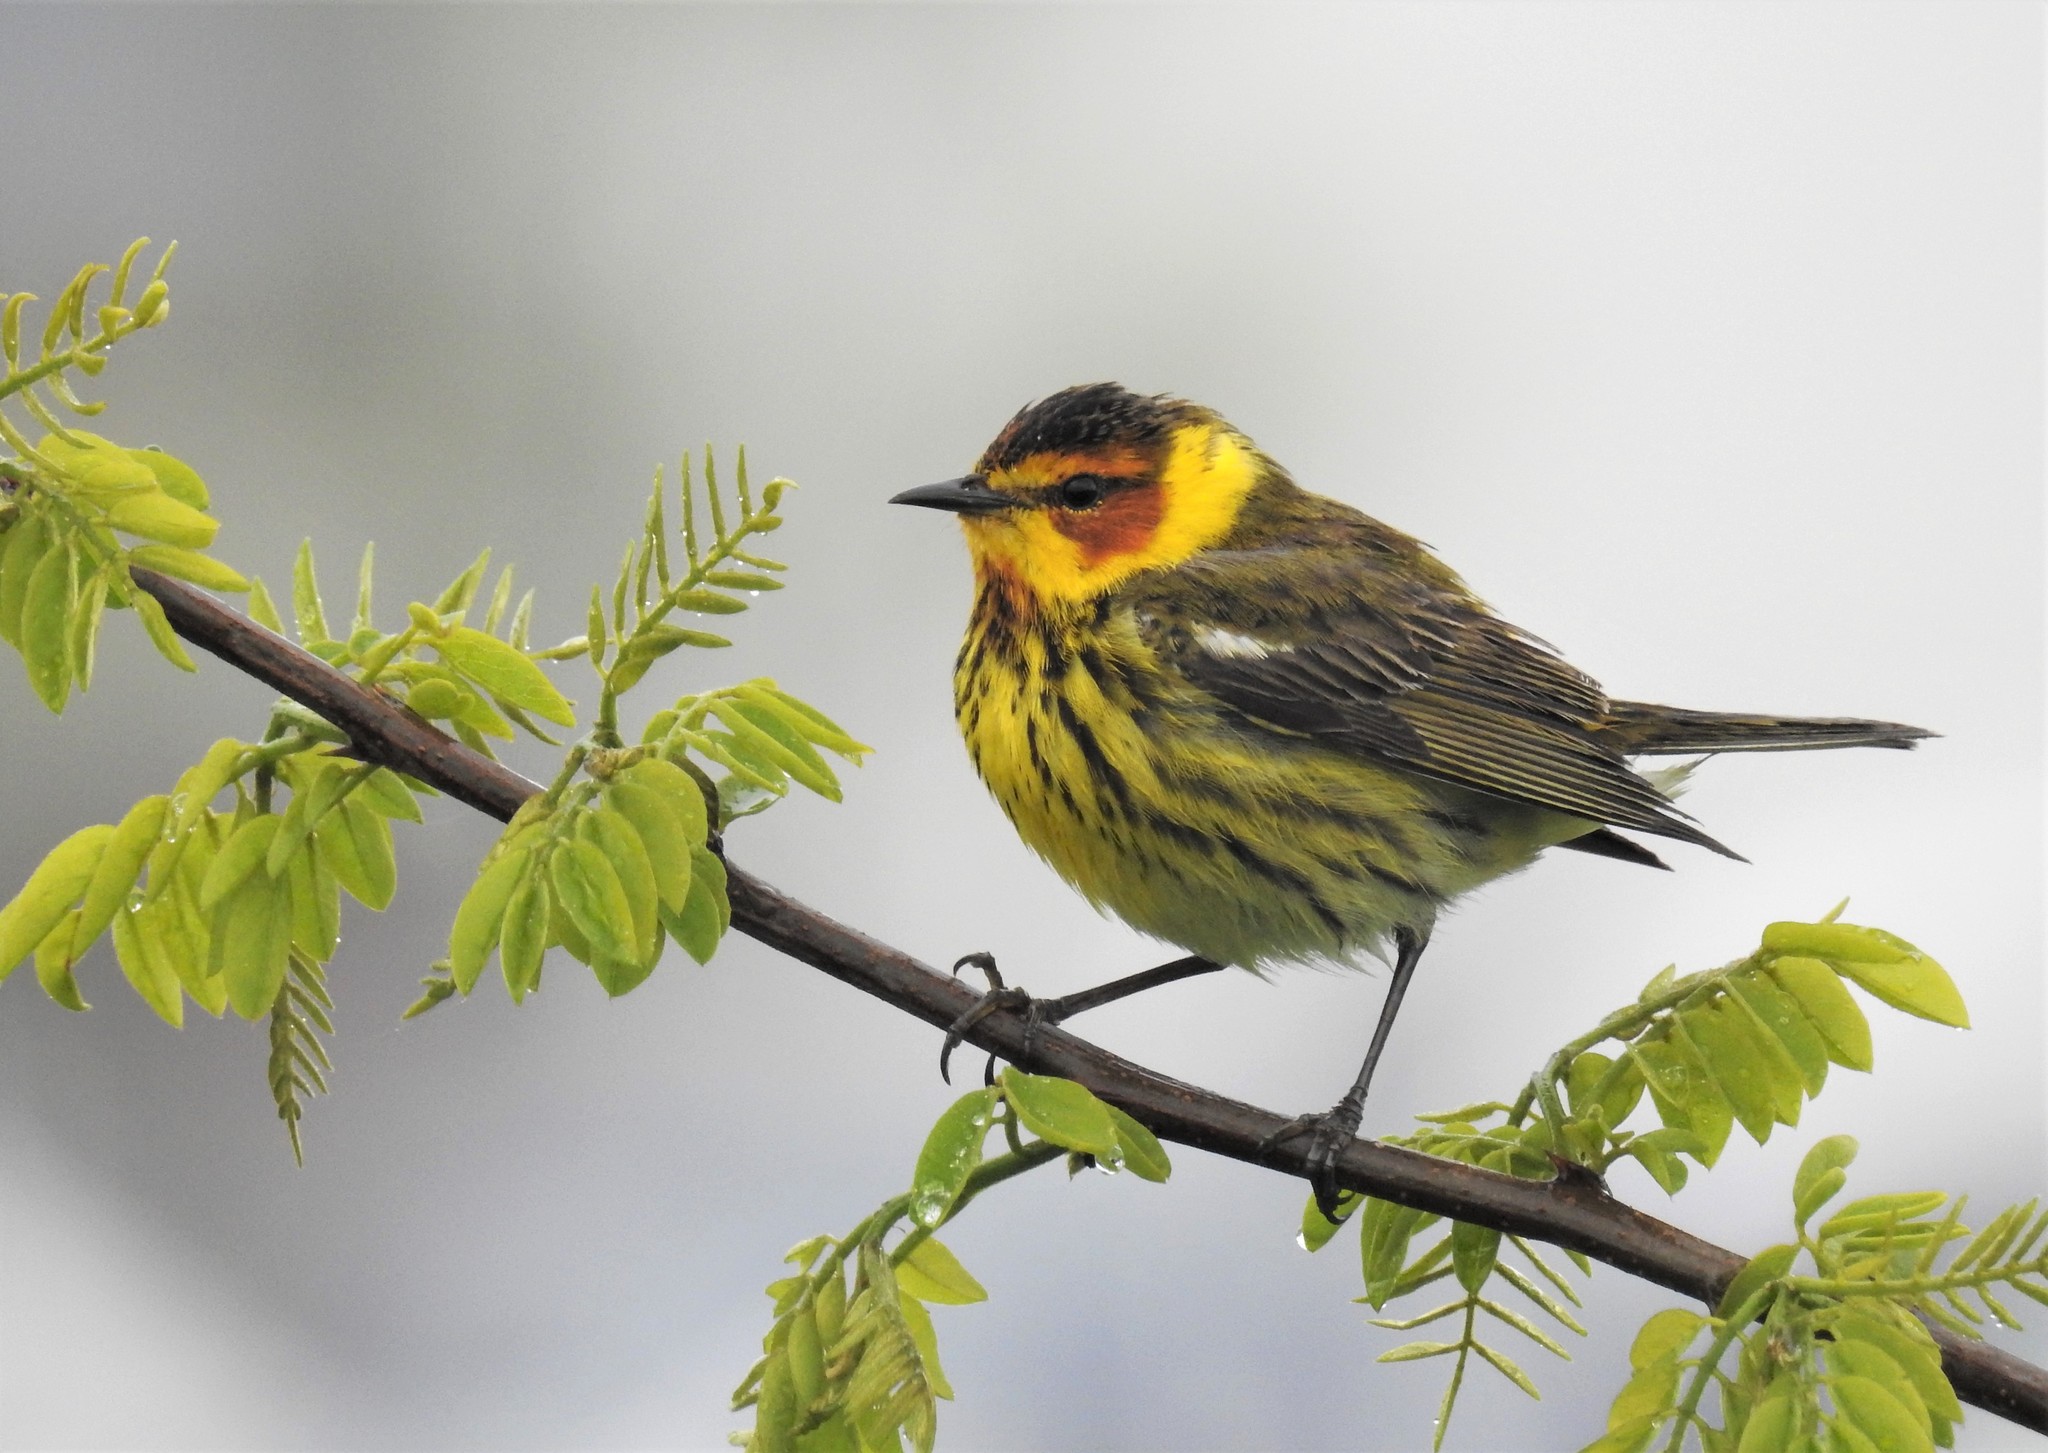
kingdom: Animalia
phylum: Chordata
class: Aves
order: Passeriformes
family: Parulidae
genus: Setophaga
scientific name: Setophaga tigrina
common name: Cape may warbler
